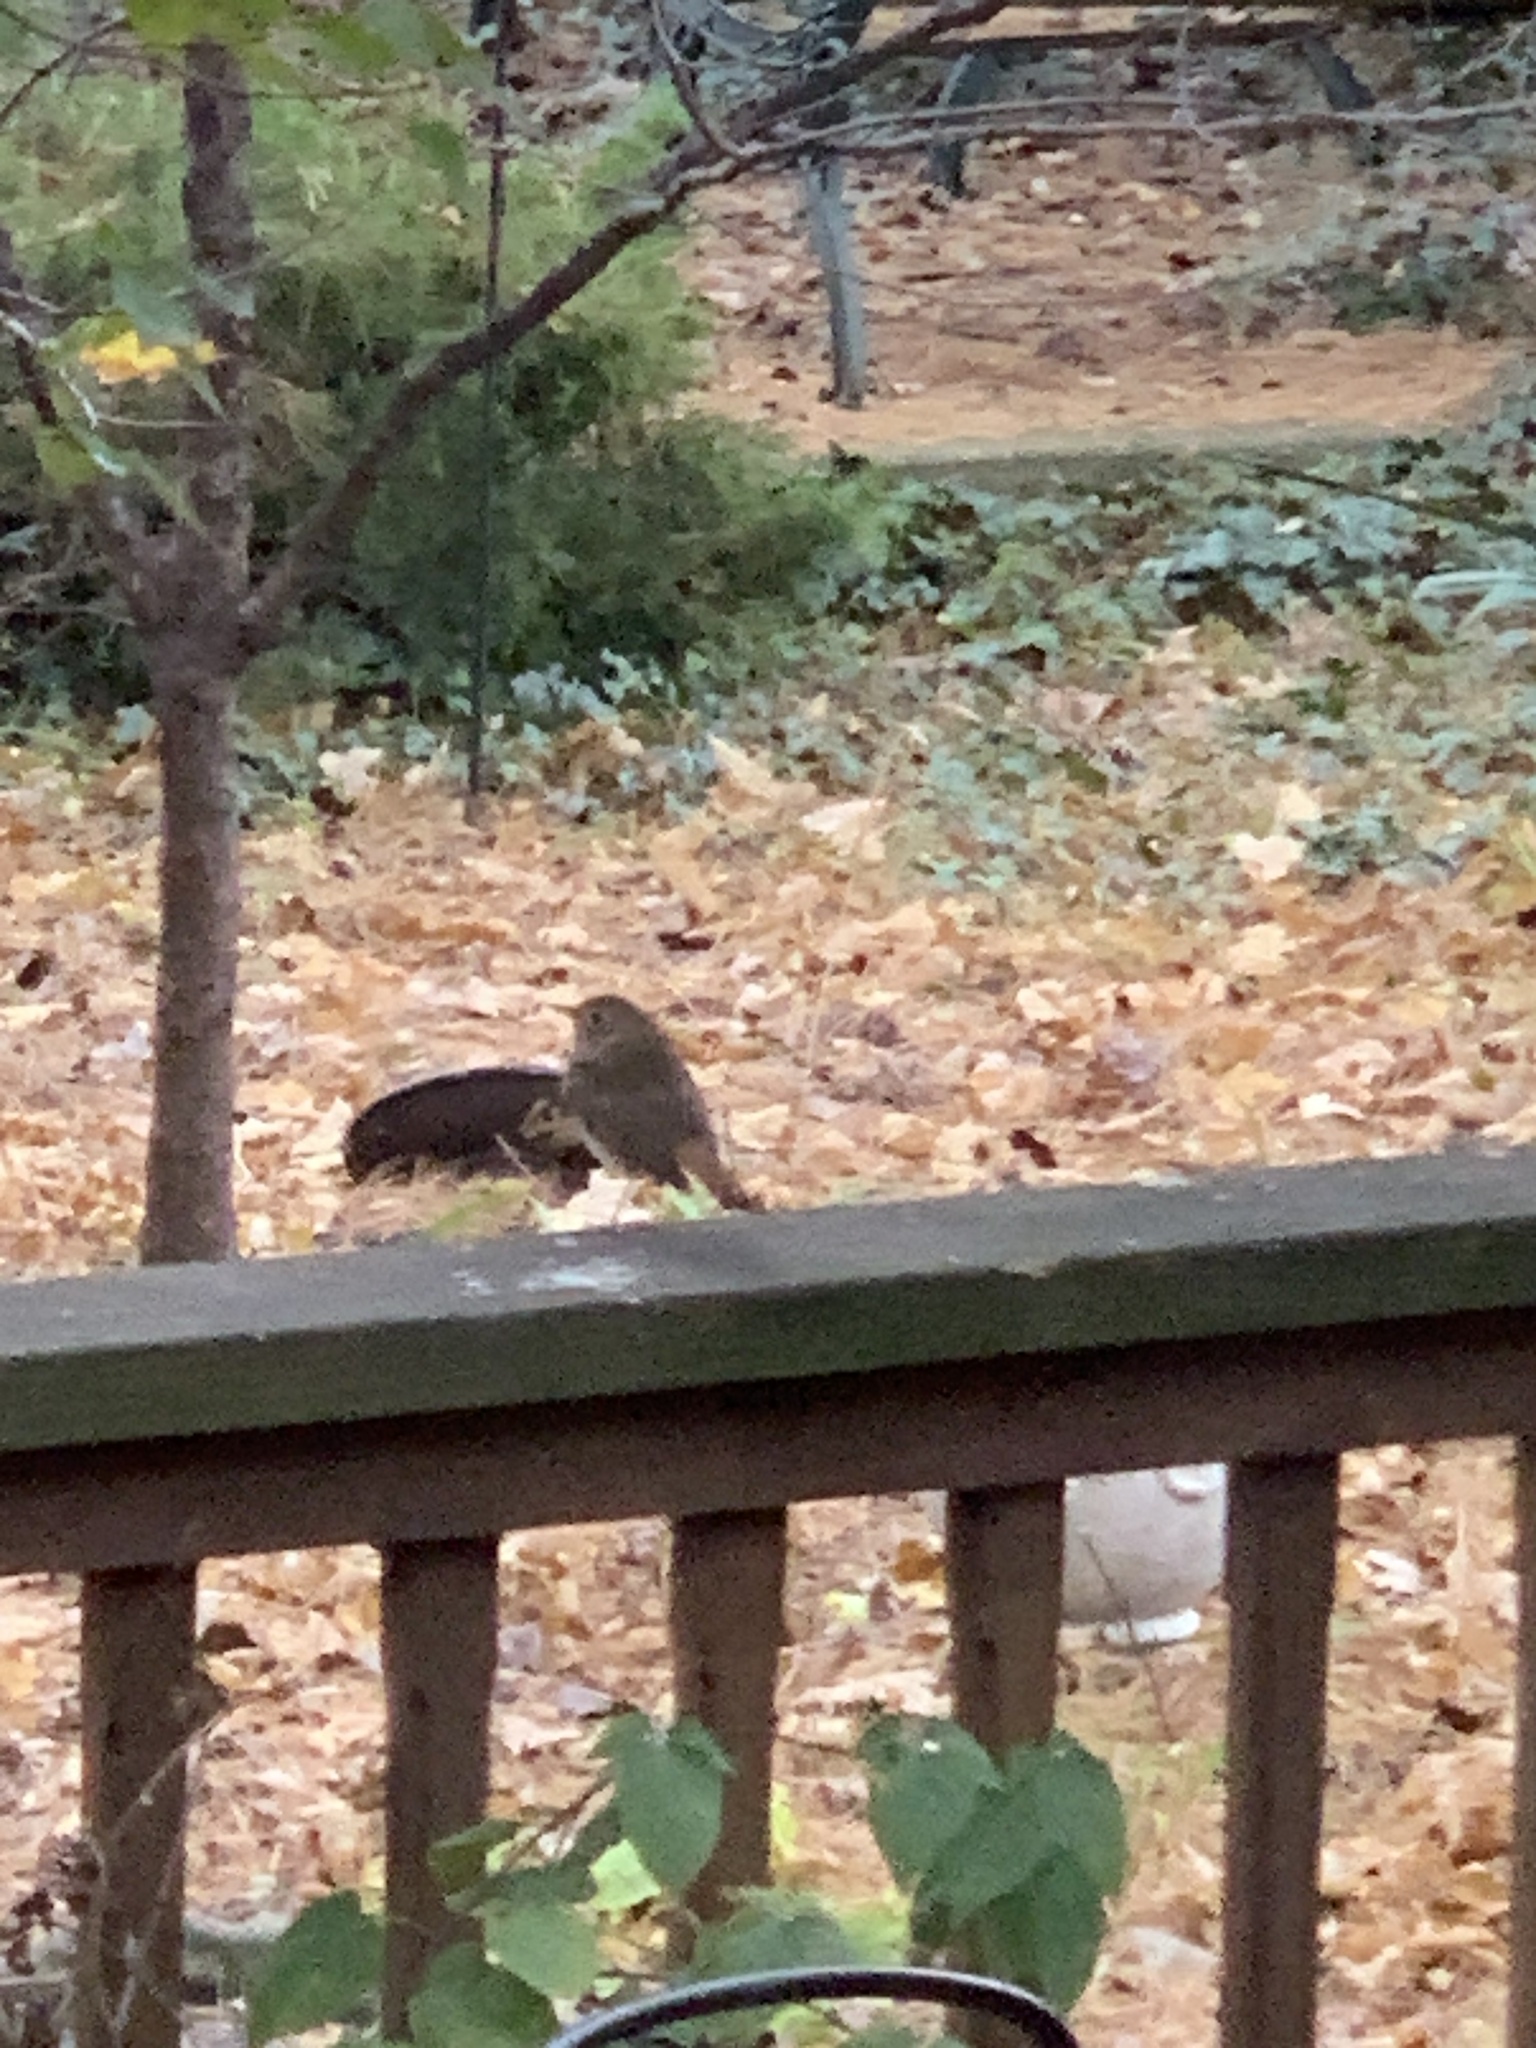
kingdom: Animalia
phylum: Chordata
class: Aves
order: Passeriformes
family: Turdidae
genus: Catharus
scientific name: Catharus guttatus
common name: Hermit thrush
